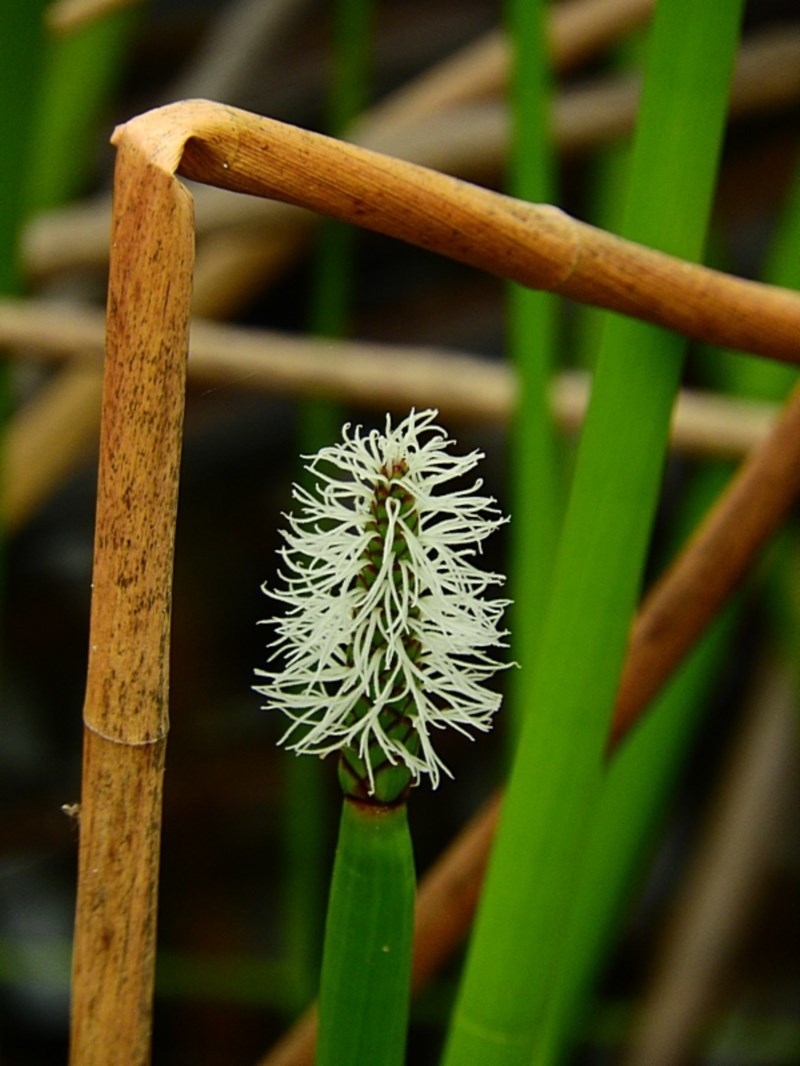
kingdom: Plantae
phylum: Tracheophyta
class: Liliopsida
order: Poales
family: Cyperaceae
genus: Eleocharis
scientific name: Eleocharis sphacelata
